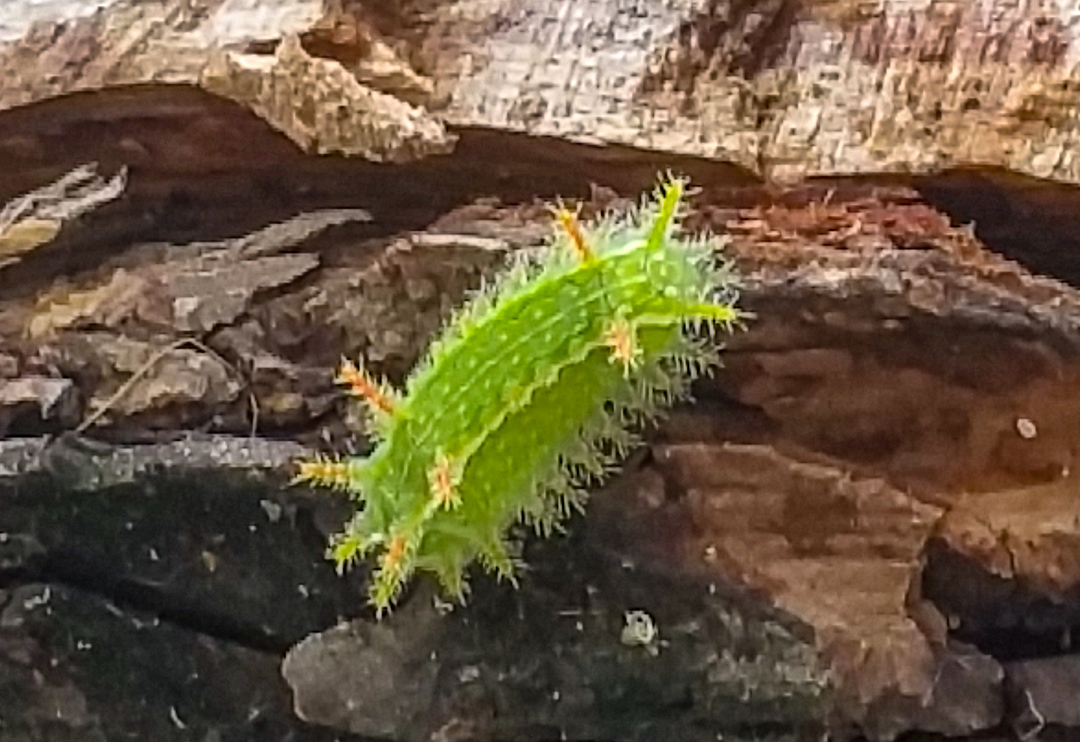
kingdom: Animalia
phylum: Arthropoda
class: Insecta
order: Lepidoptera
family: Limacodidae
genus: Euclea
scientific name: Euclea incisa
